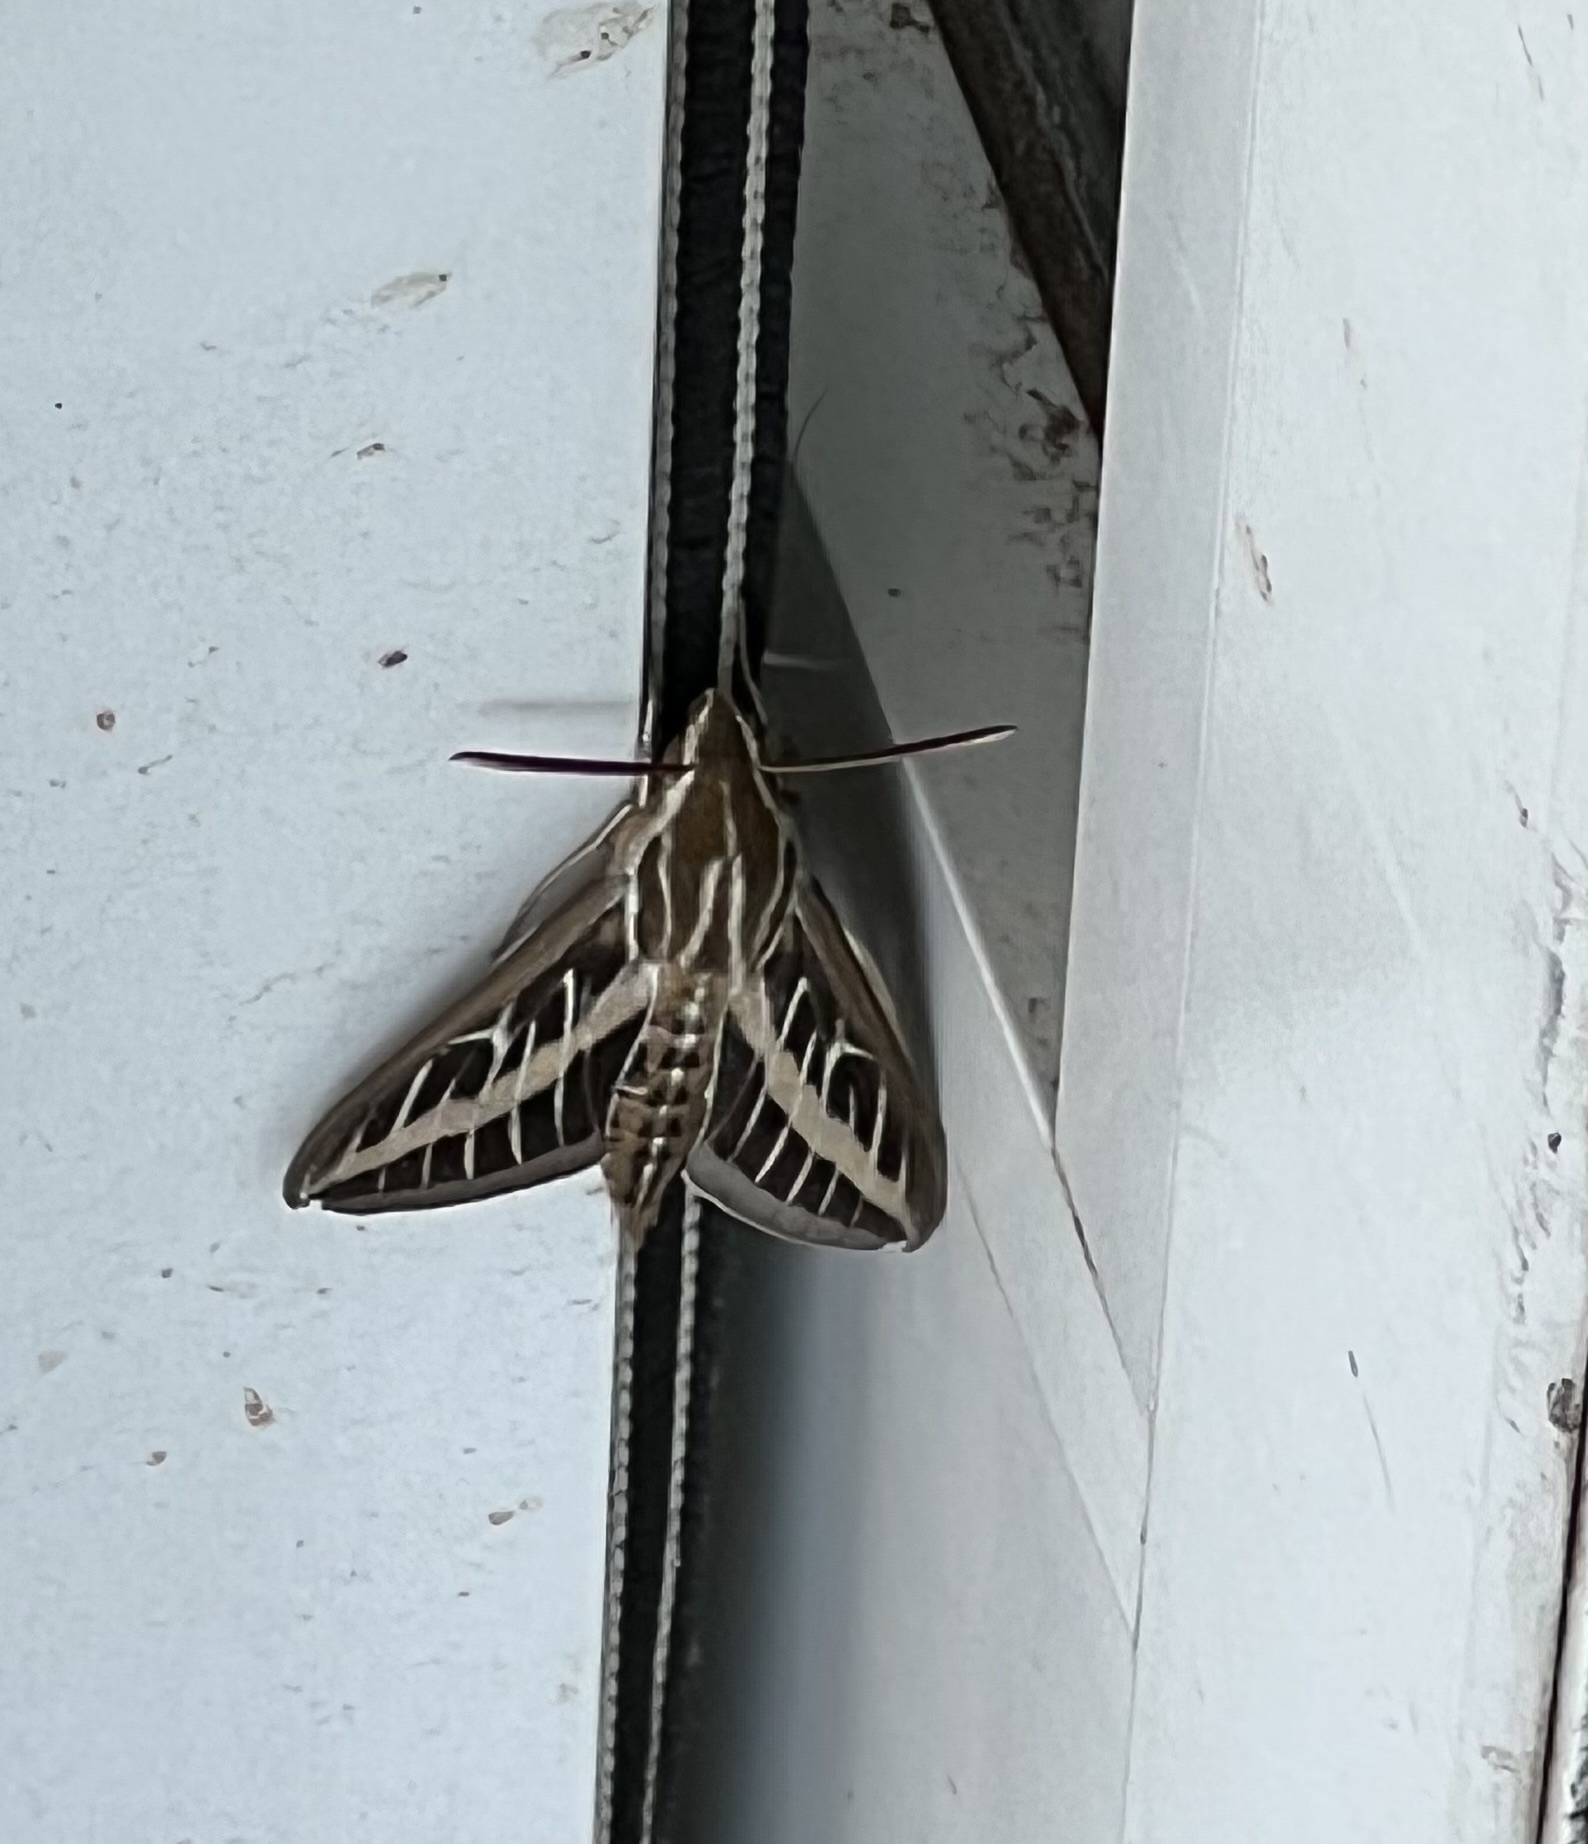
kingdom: Animalia
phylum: Arthropoda
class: Insecta
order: Lepidoptera
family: Sphingidae
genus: Hyles
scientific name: Hyles lineata
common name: White-lined sphinx
